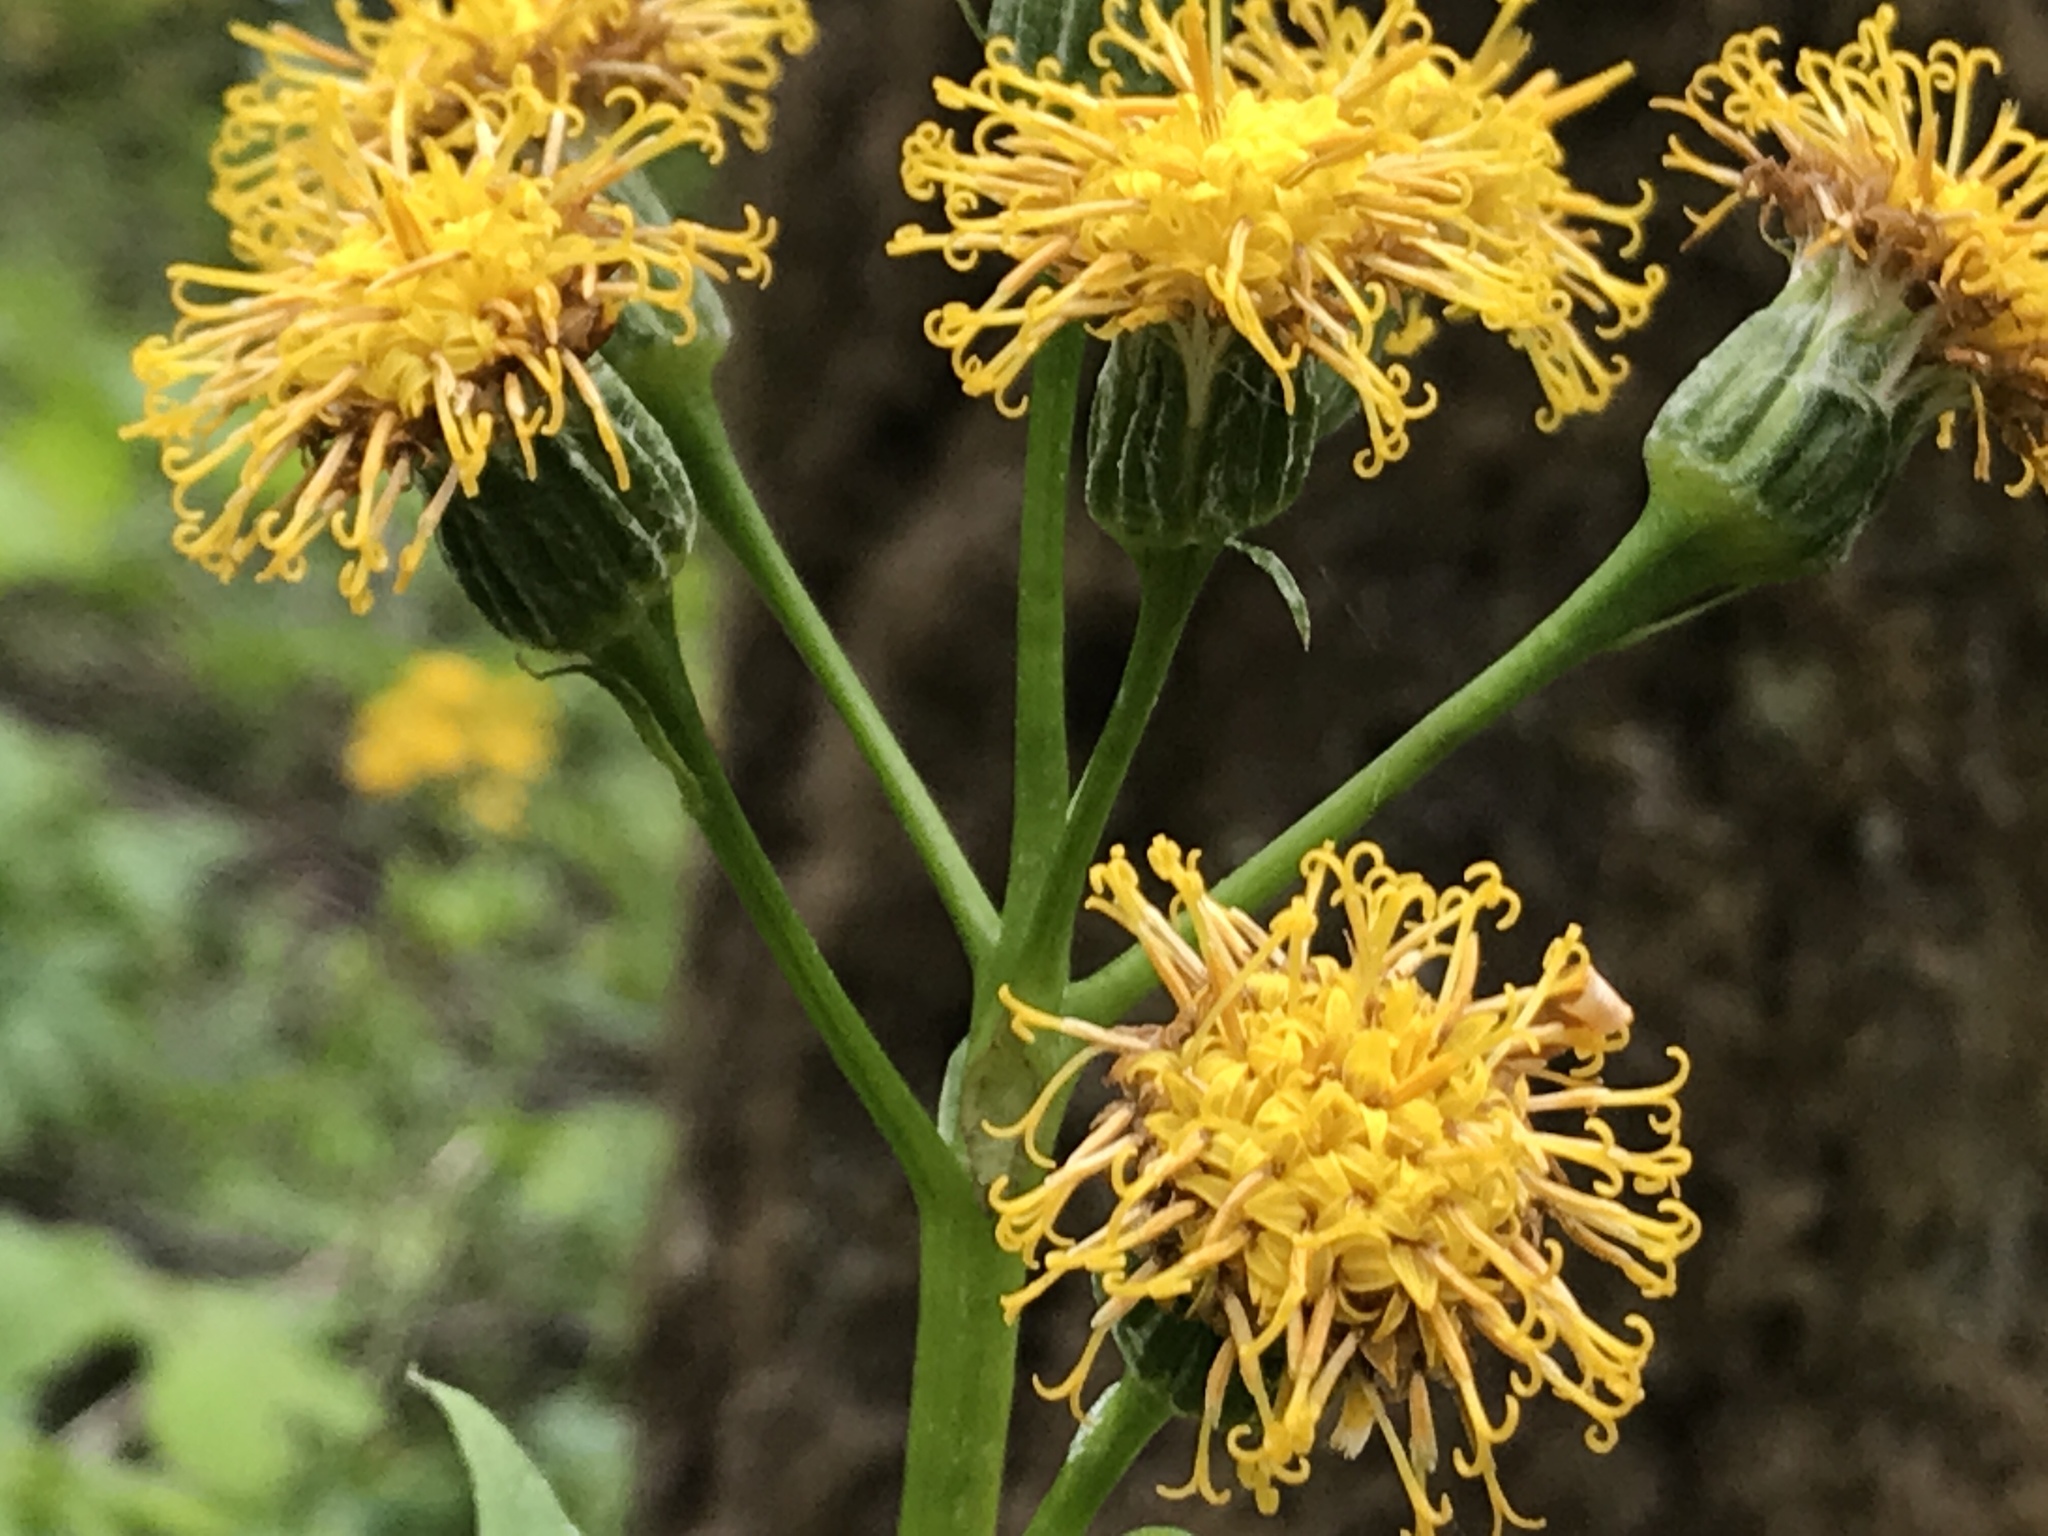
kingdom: Plantae
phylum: Tracheophyta
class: Magnoliopsida
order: Asterales
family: Asteraceae
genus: Cacaliopsis
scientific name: Cacaliopsis nardosmia
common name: Silvercrown
